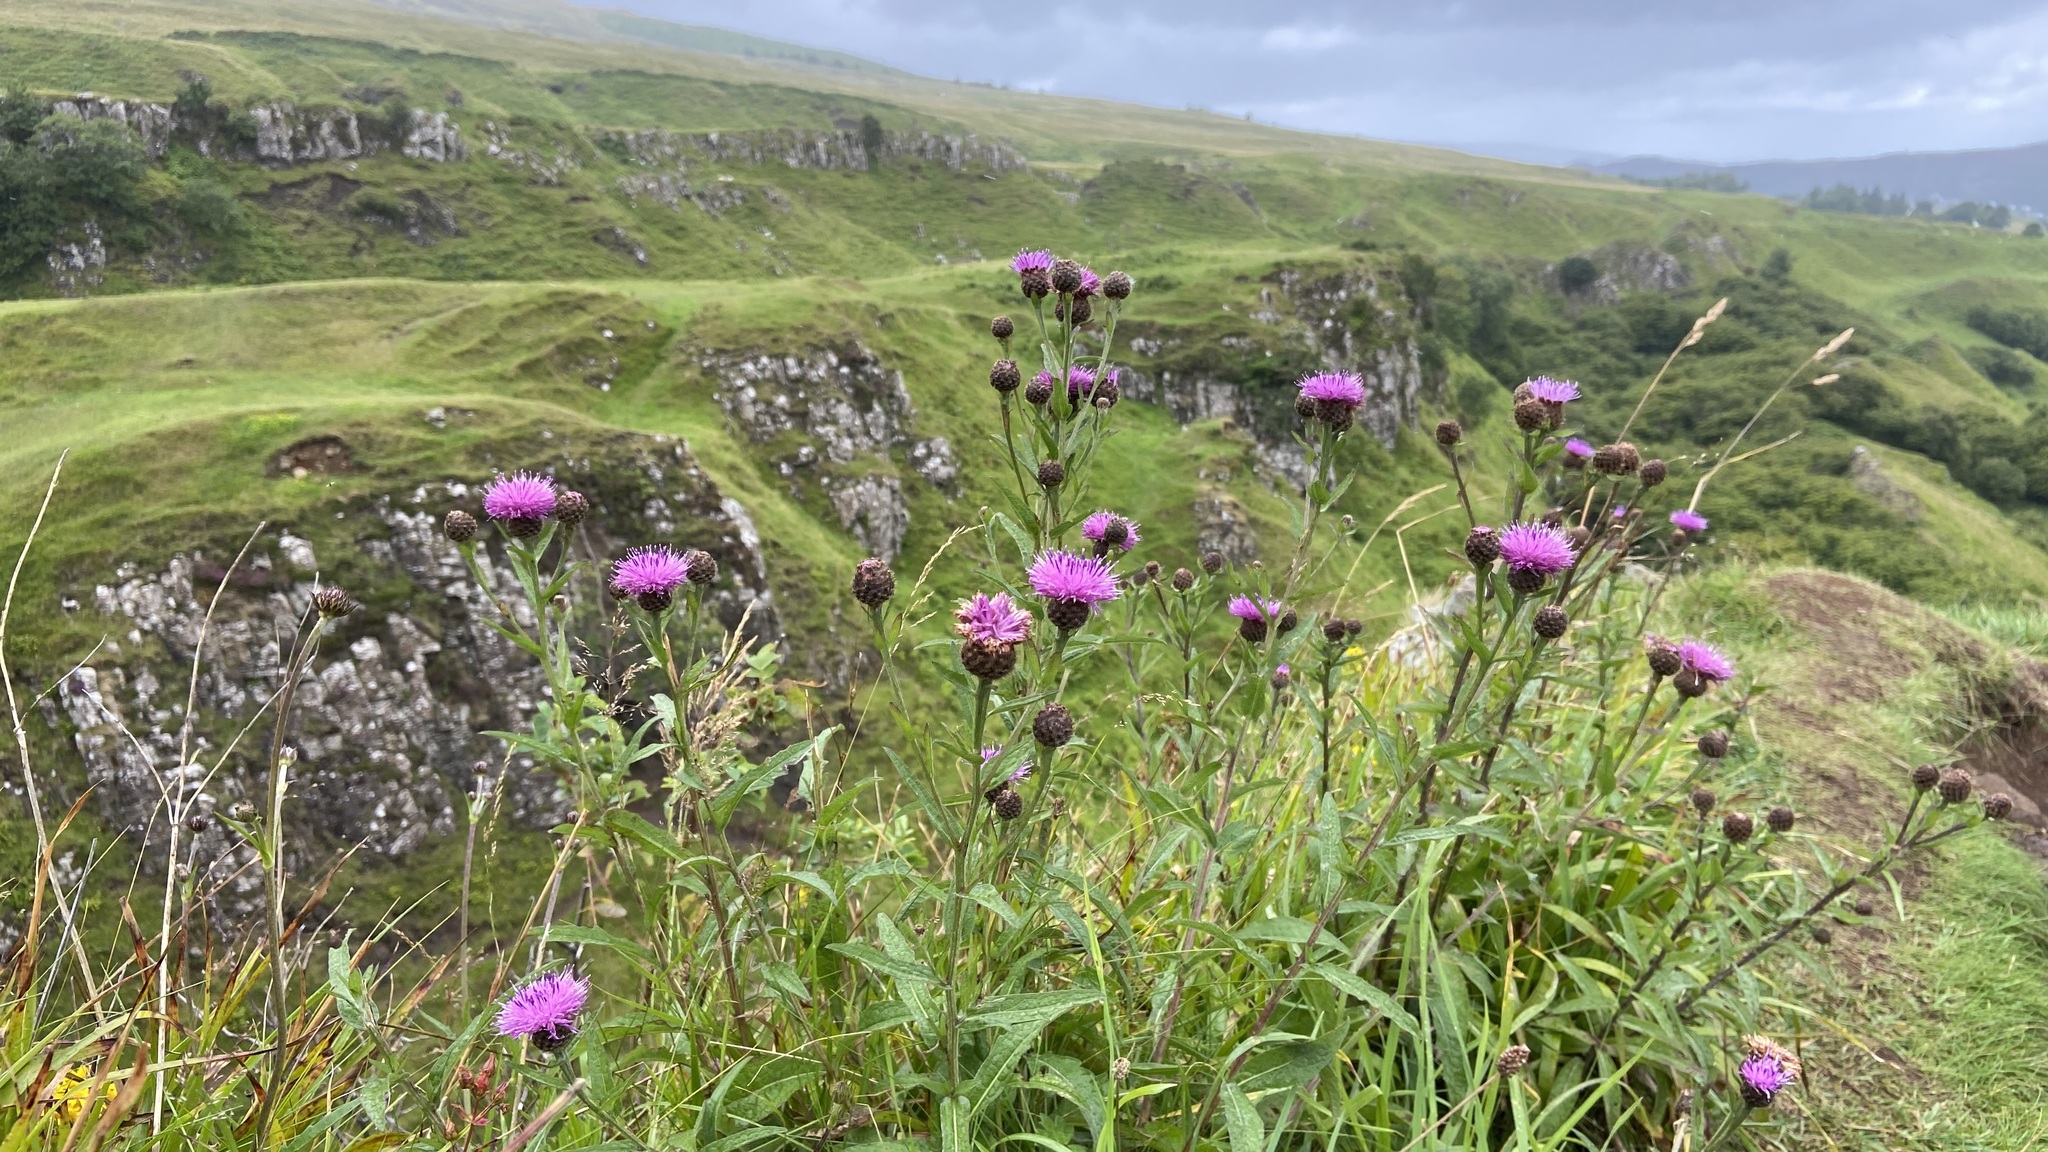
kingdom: Plantae
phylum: Tracheophyta
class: Magnoliopsida
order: Asterales
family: Asteraceae
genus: Centaurea
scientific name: Centaurea nigra
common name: Lesser knapweed
